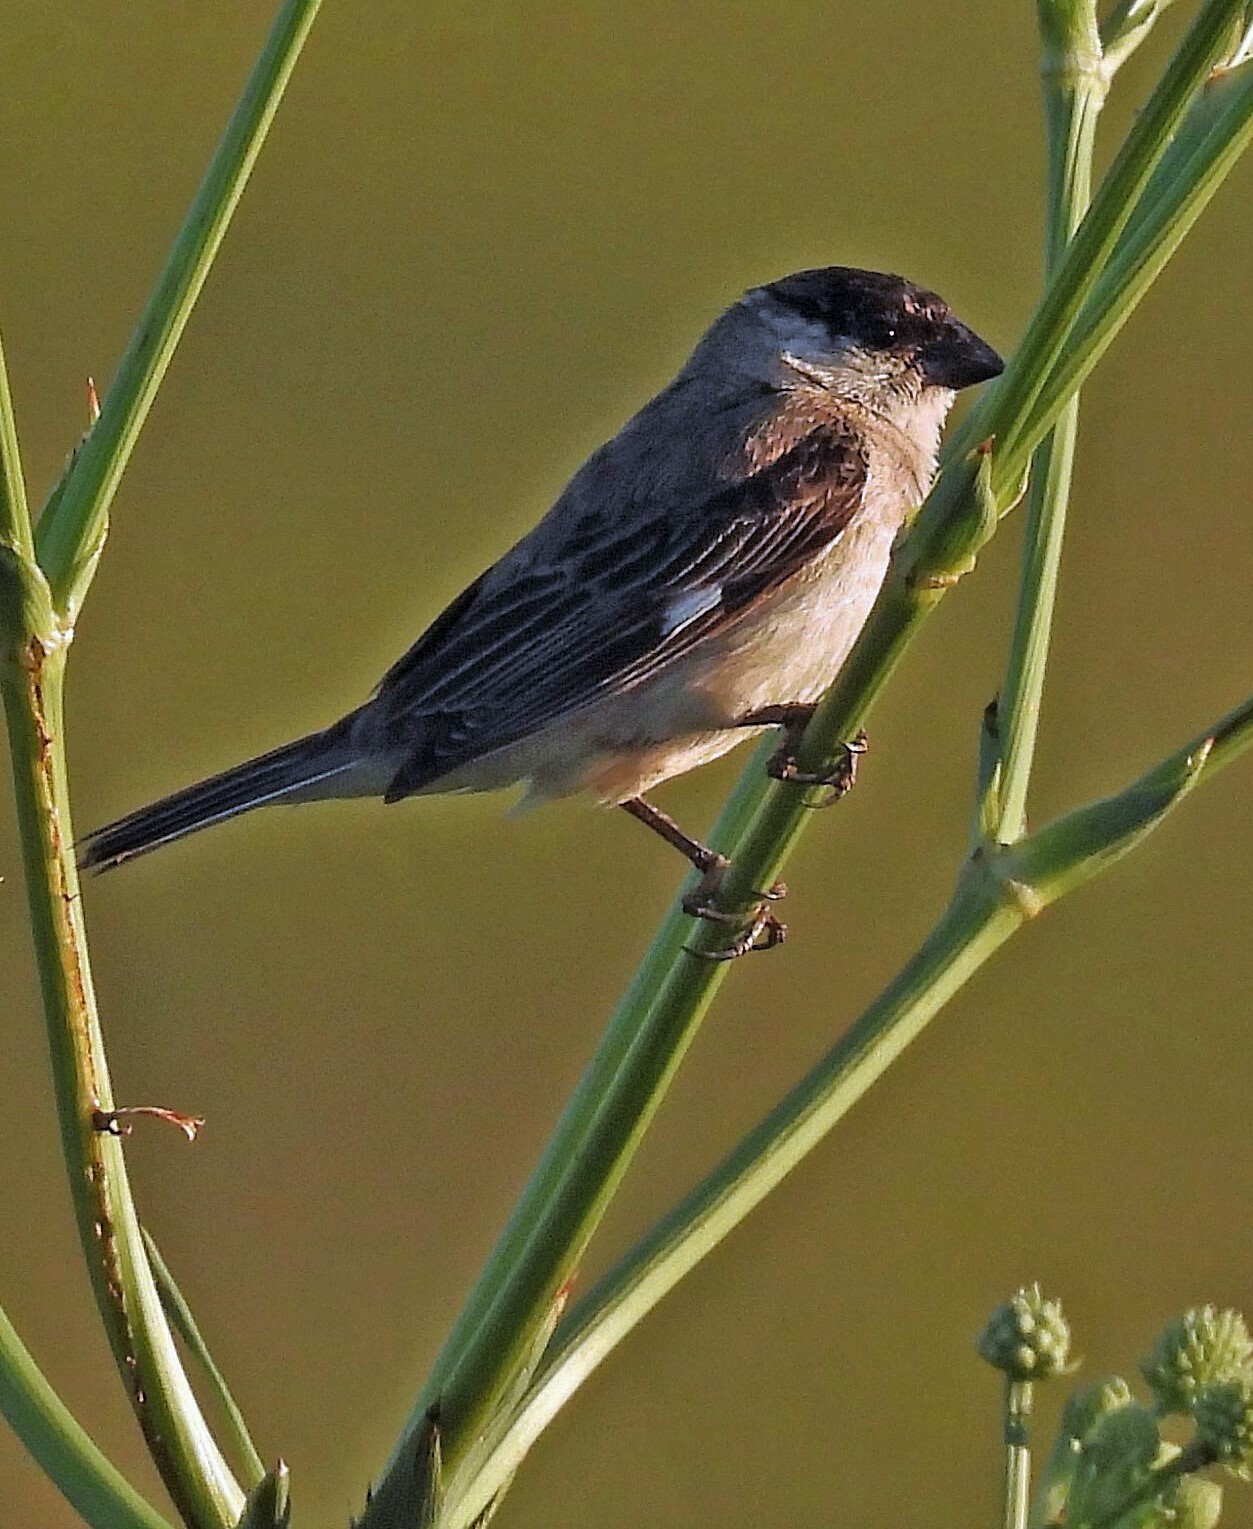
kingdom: Animalia
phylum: Chordata
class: Aves
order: Passeriformes
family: Thraupidae
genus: Sporophila
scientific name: Sporophila pileata
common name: Pearly-bellied seedeater
